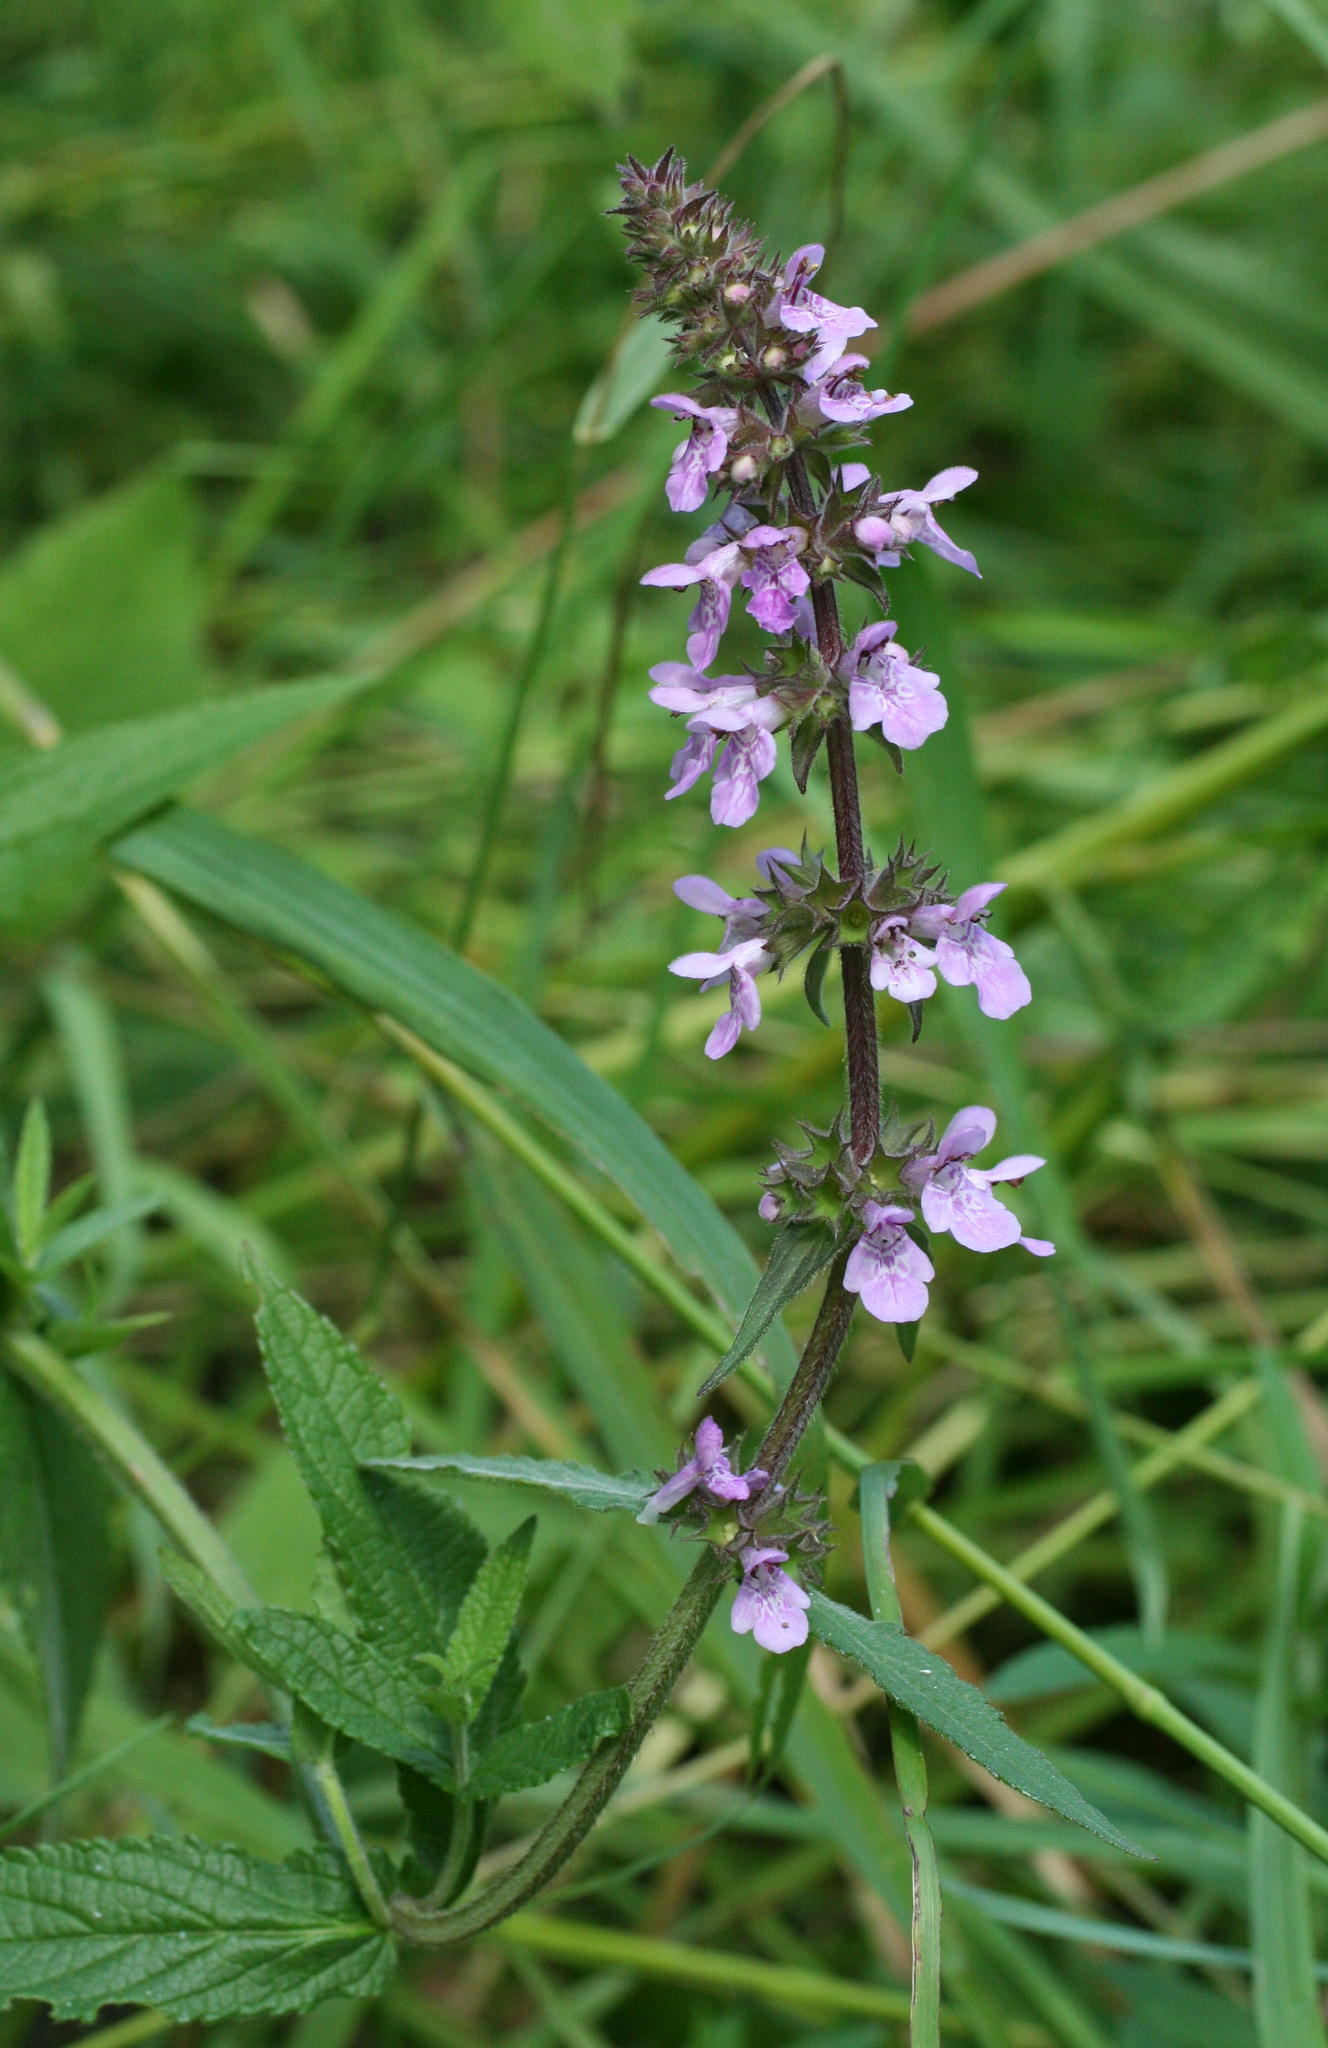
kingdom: Plantae
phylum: Tracheophyta
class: Magnoliopsida
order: Lamiales
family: Lamiaceae
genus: Stachys
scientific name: Stachys palustris
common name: Marsh woundwort
